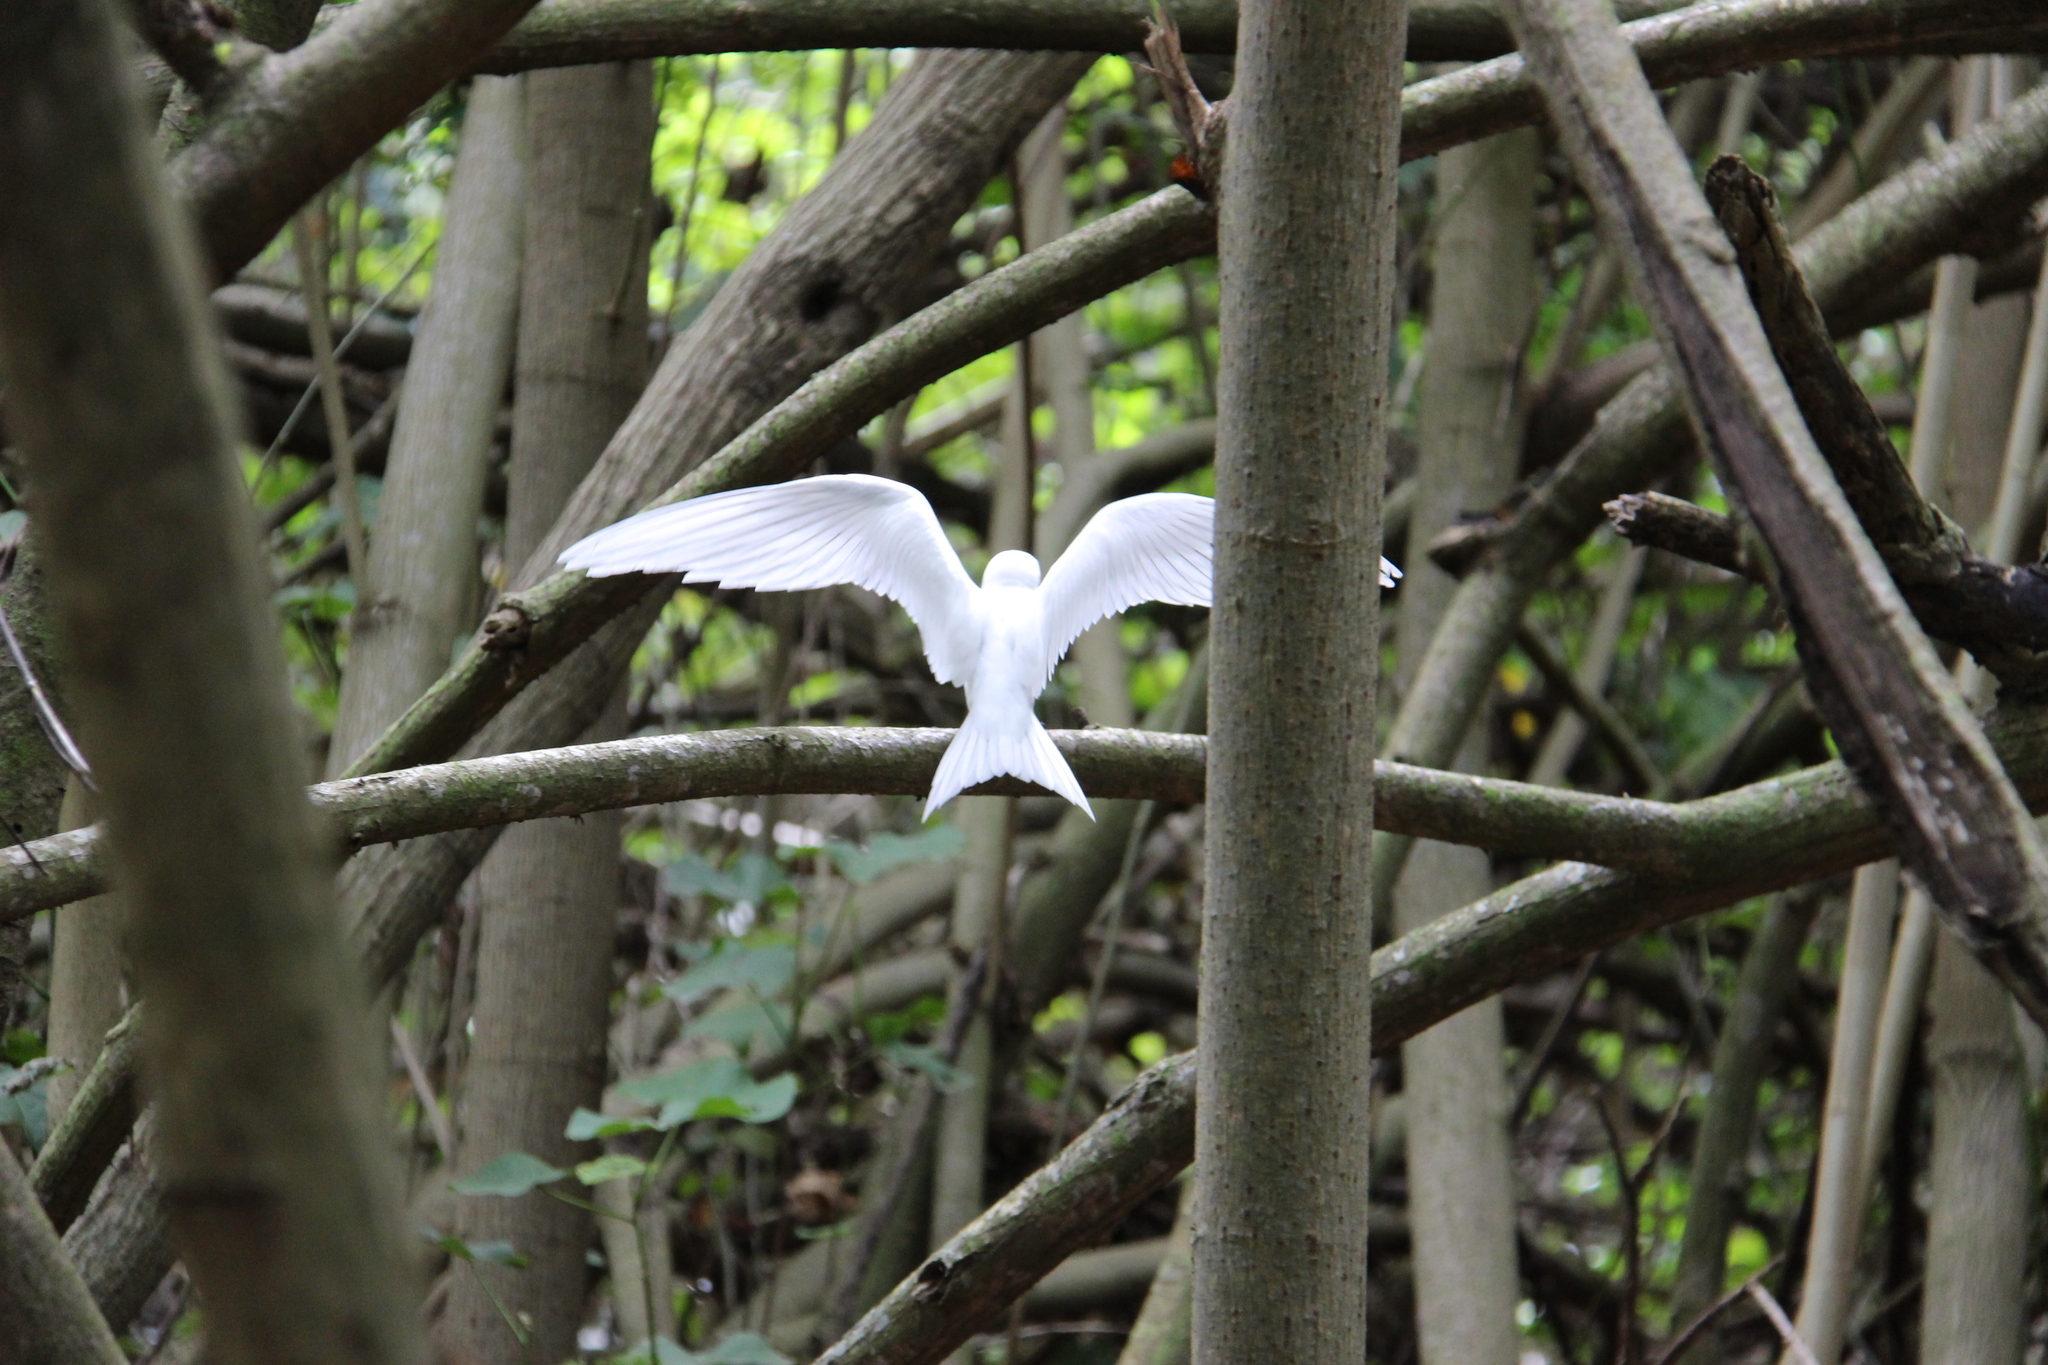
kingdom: Animalia
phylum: Chordata
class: Aves
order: Charadriiformes
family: Laridae
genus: Gygis
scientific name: Gygis alba
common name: White tern
